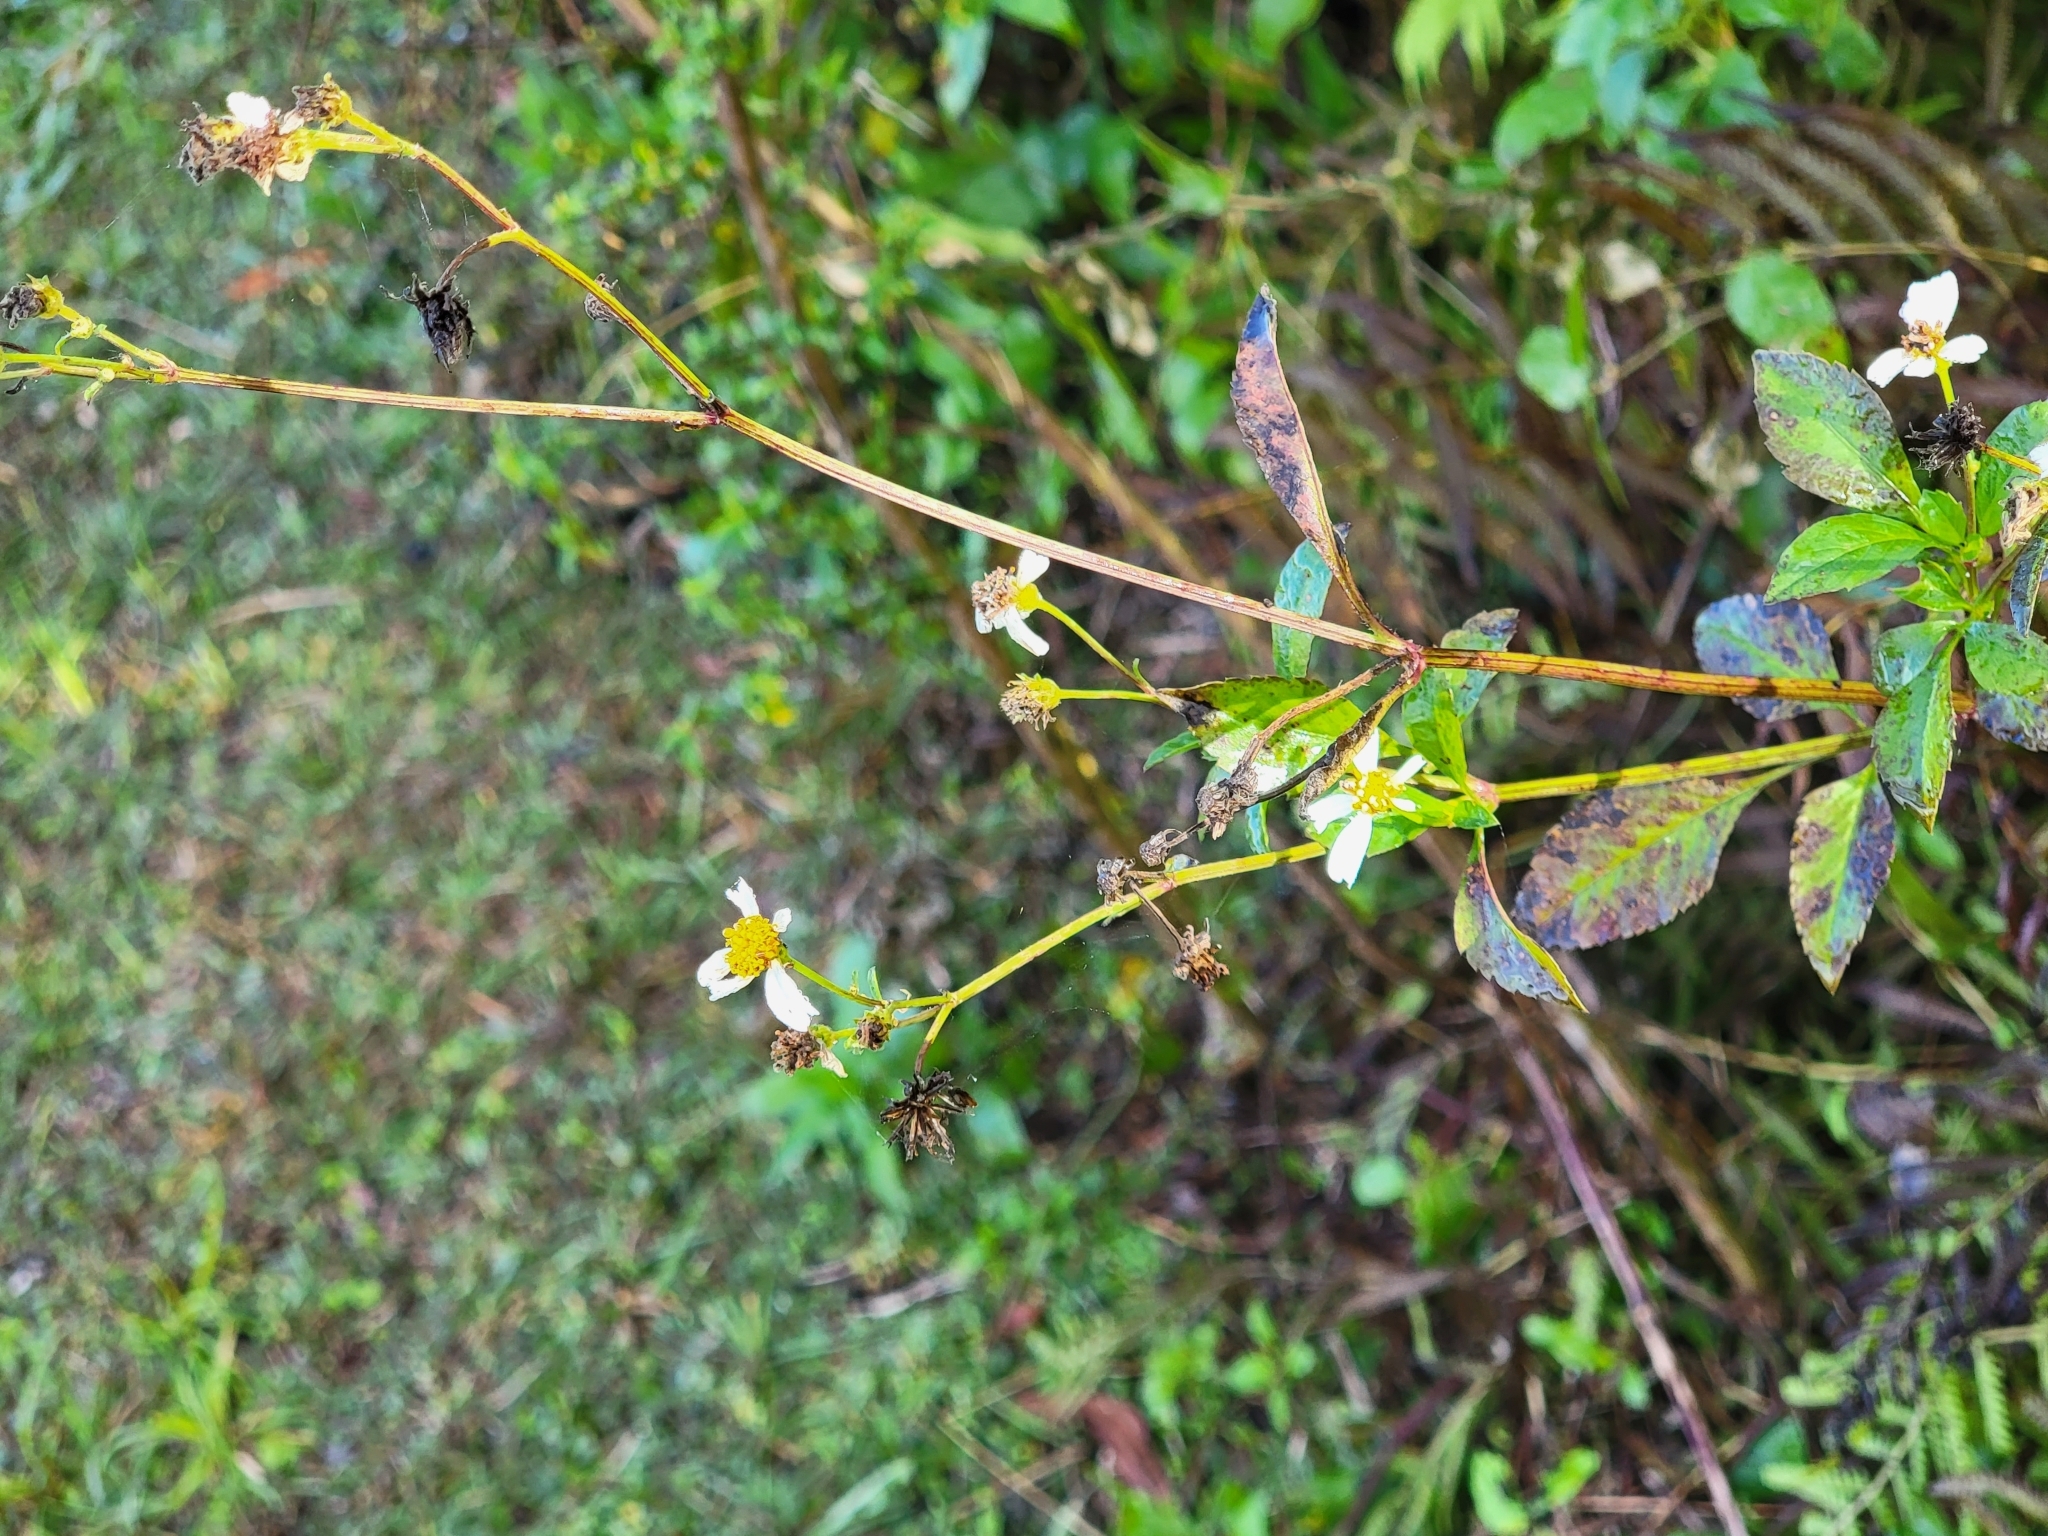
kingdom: Plantae
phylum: Tracheophyta
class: Magnoliopsida
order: Asterales
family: Asteraceae
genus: Bidens
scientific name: Bidens alba
